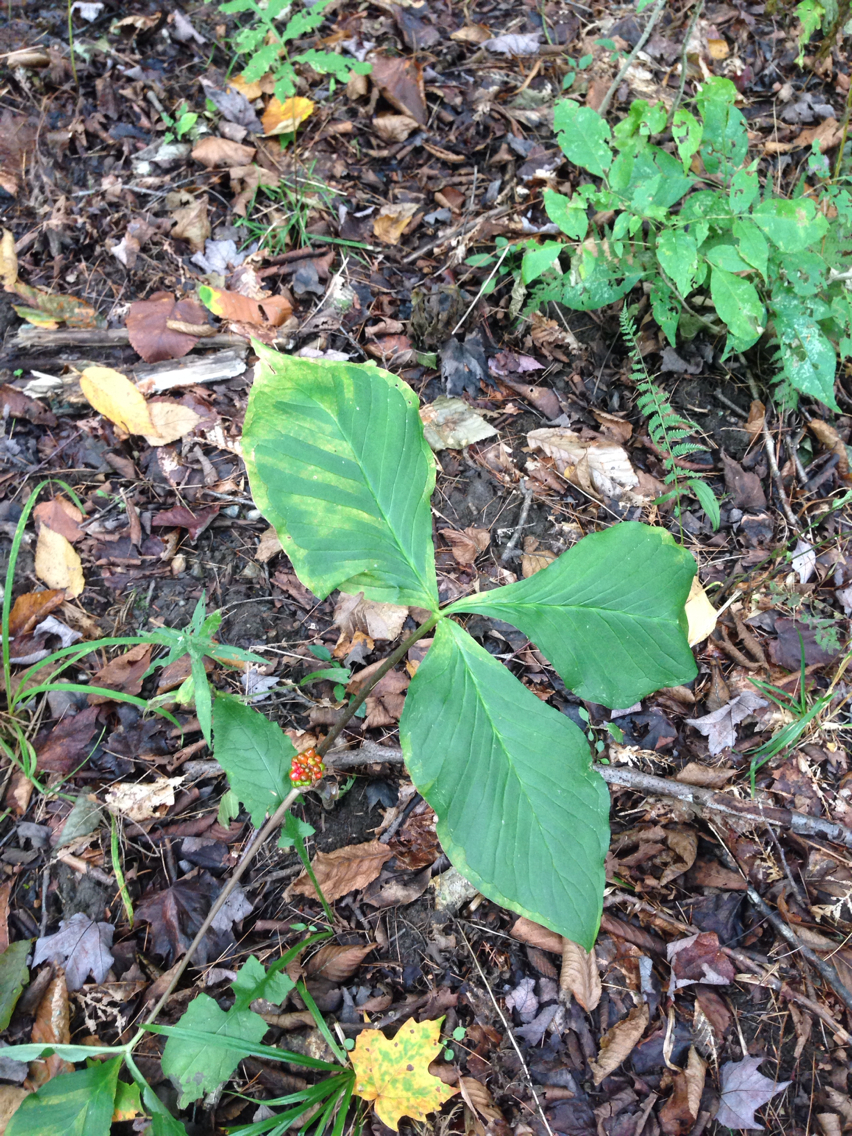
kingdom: Plantae
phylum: Tracheophyta
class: Liliopsida
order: Alismatales
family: Araceae
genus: Arisaema
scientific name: Arisaema triphyllum
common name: Jack-in-the-pulpit
